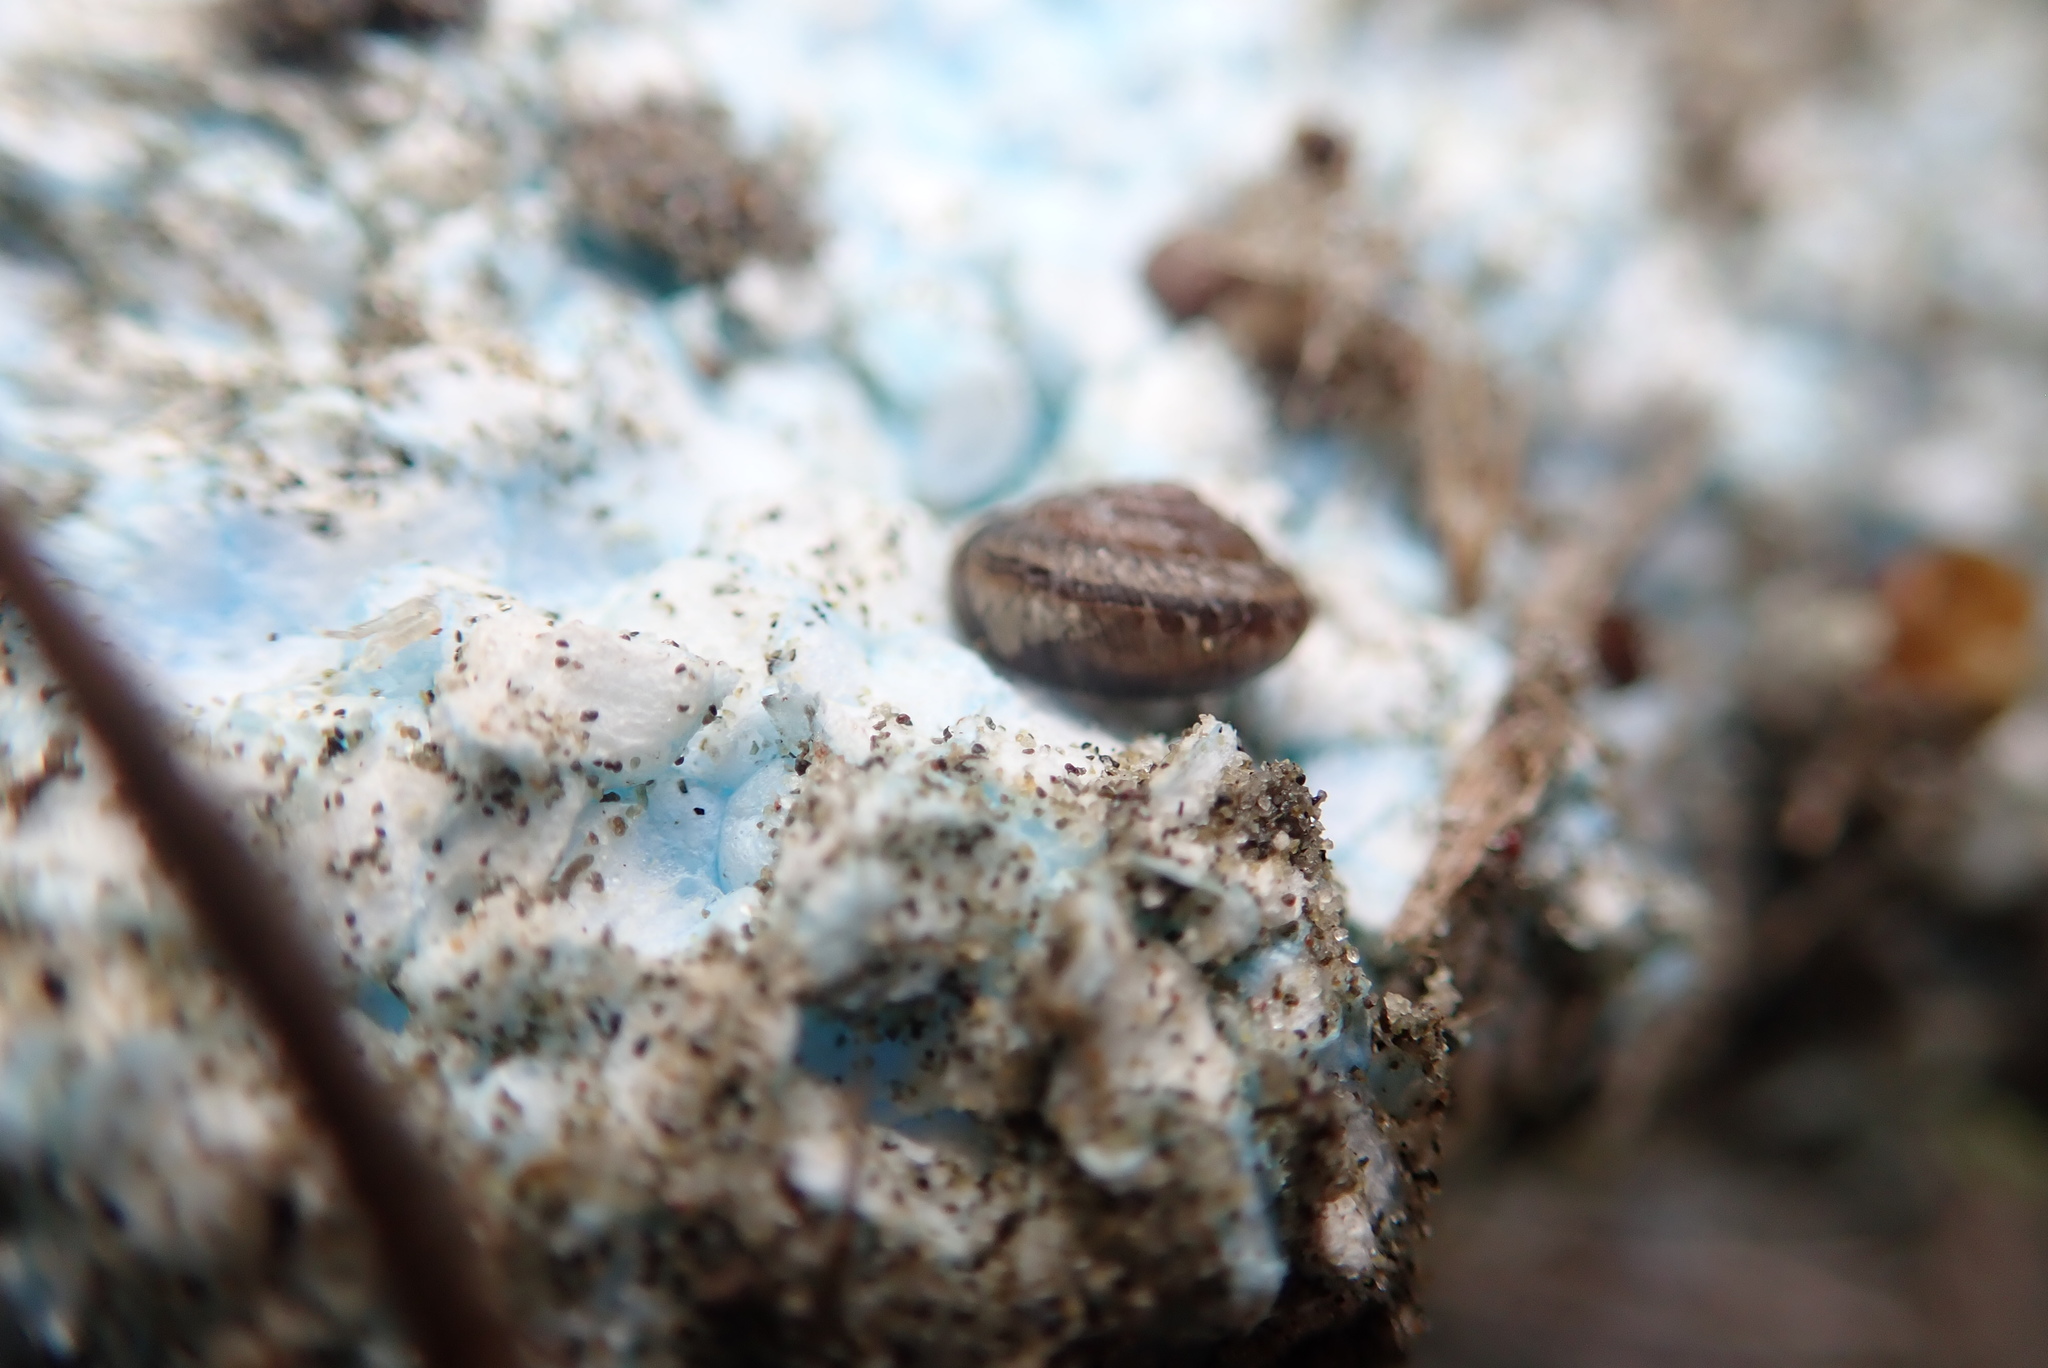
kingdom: Animalia
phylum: Mollusca
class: Gastropoda
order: Stylommatophora
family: Geomitridae
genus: Xeroplexa
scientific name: Xeroplexa intersecta
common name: Wrinkled snail
